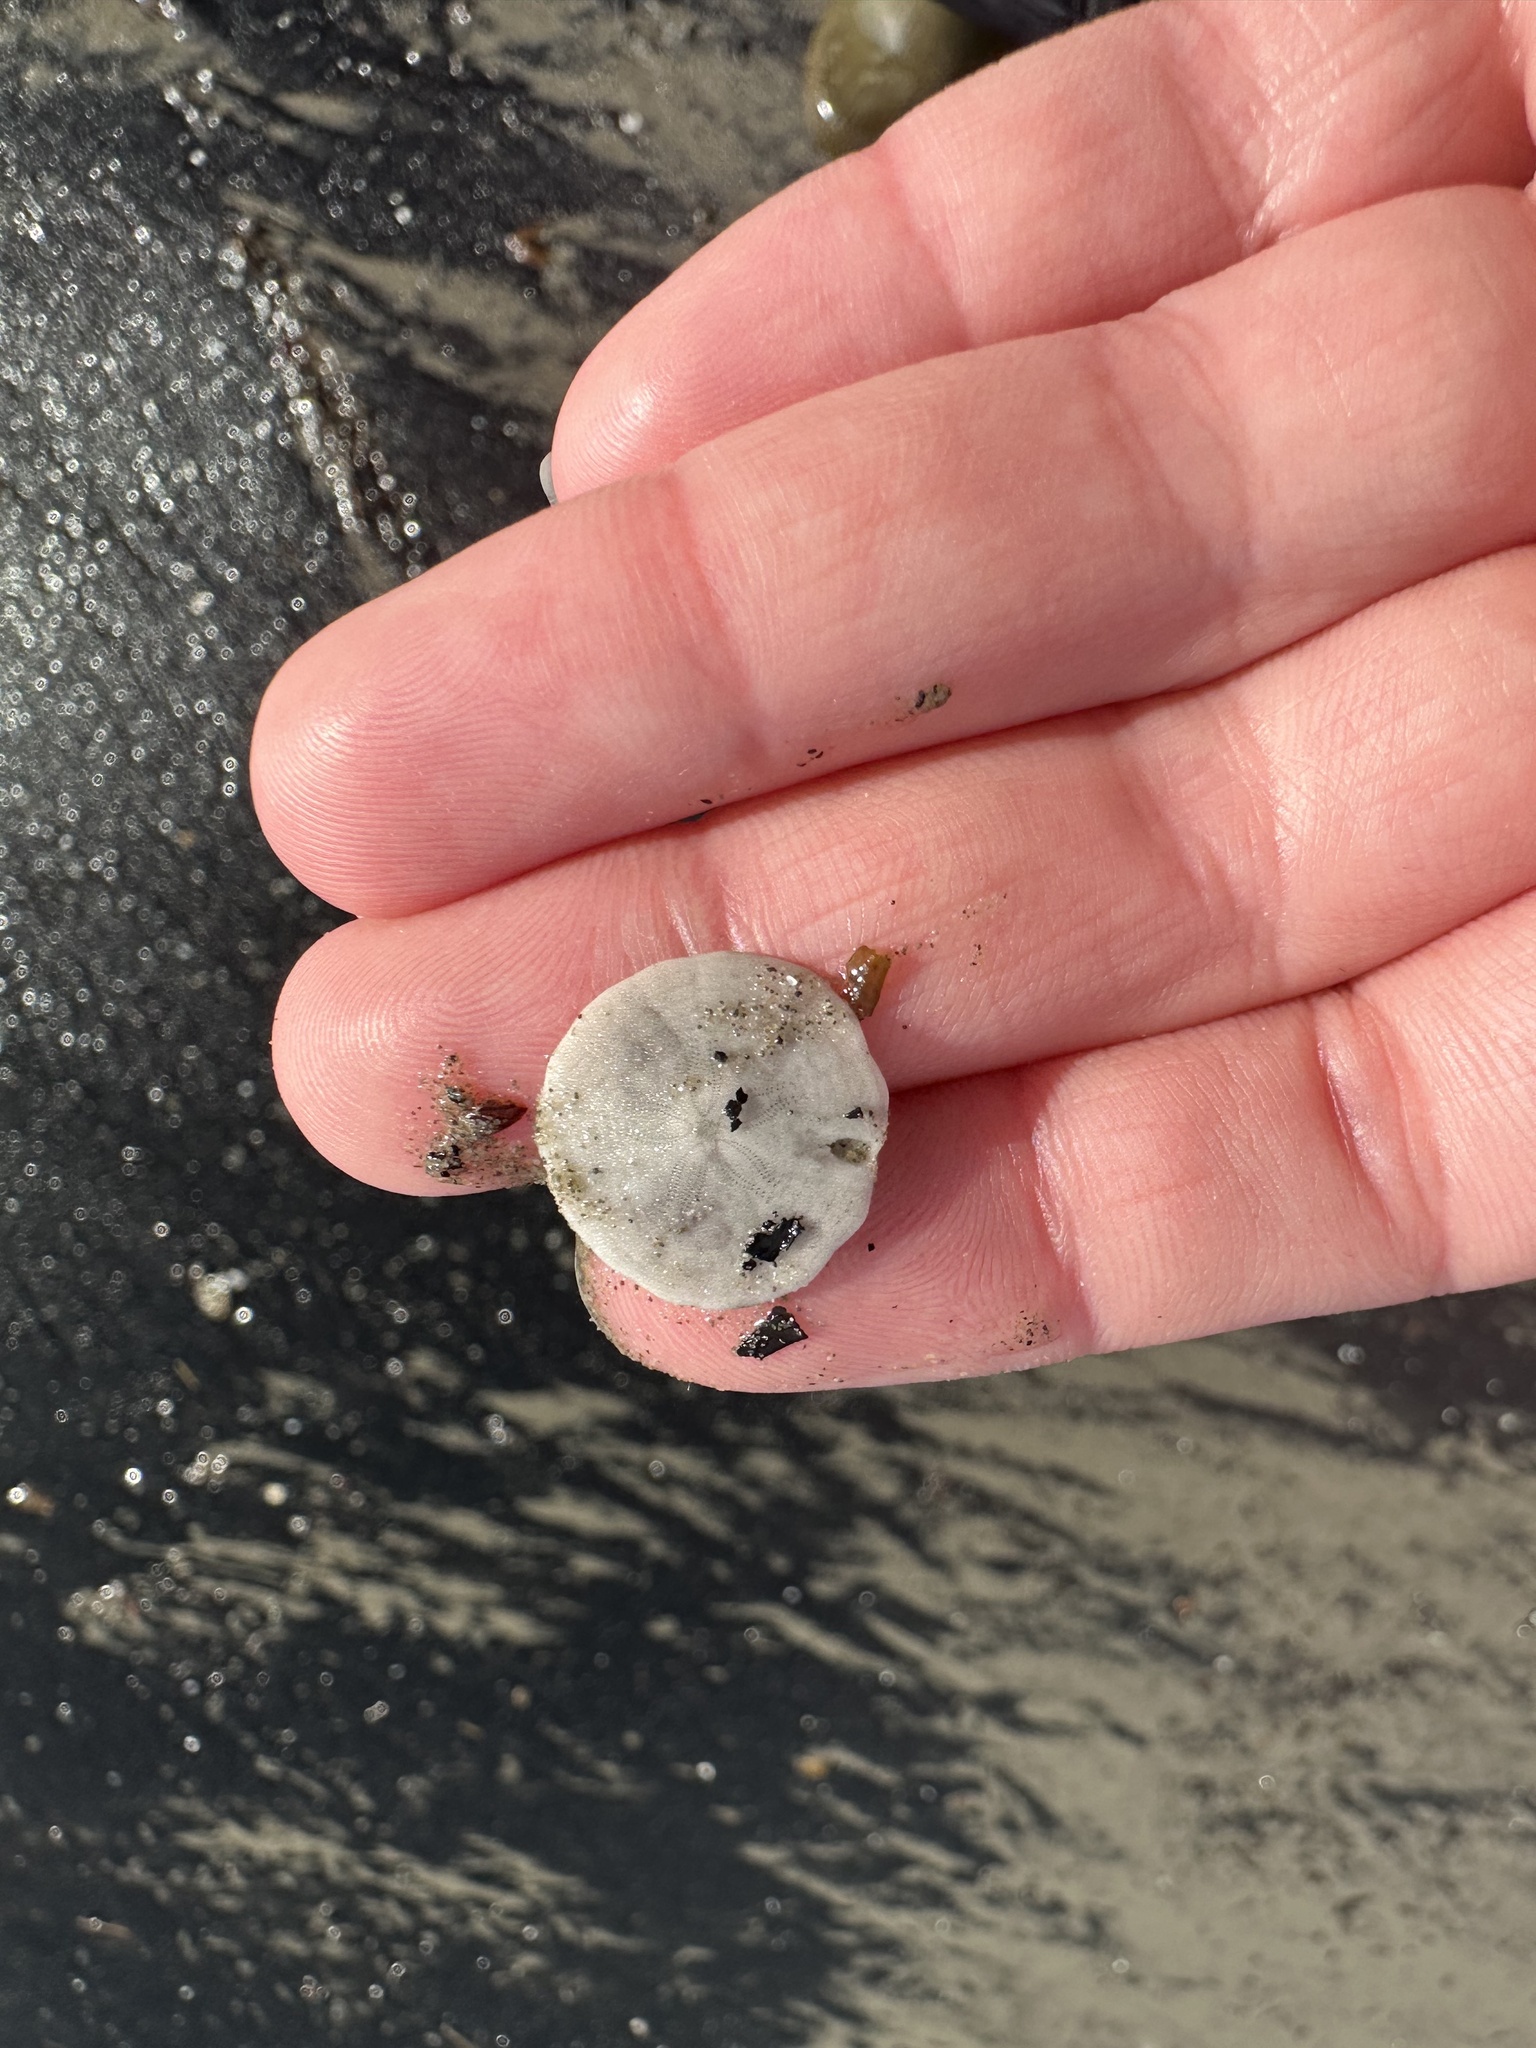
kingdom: Animalia
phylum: Echinodermata
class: Echinoidea
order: Echinolampadacea
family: Echinarachniidae
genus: Echinarachnius
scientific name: Echinarachnius parma
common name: Common sand dollar
